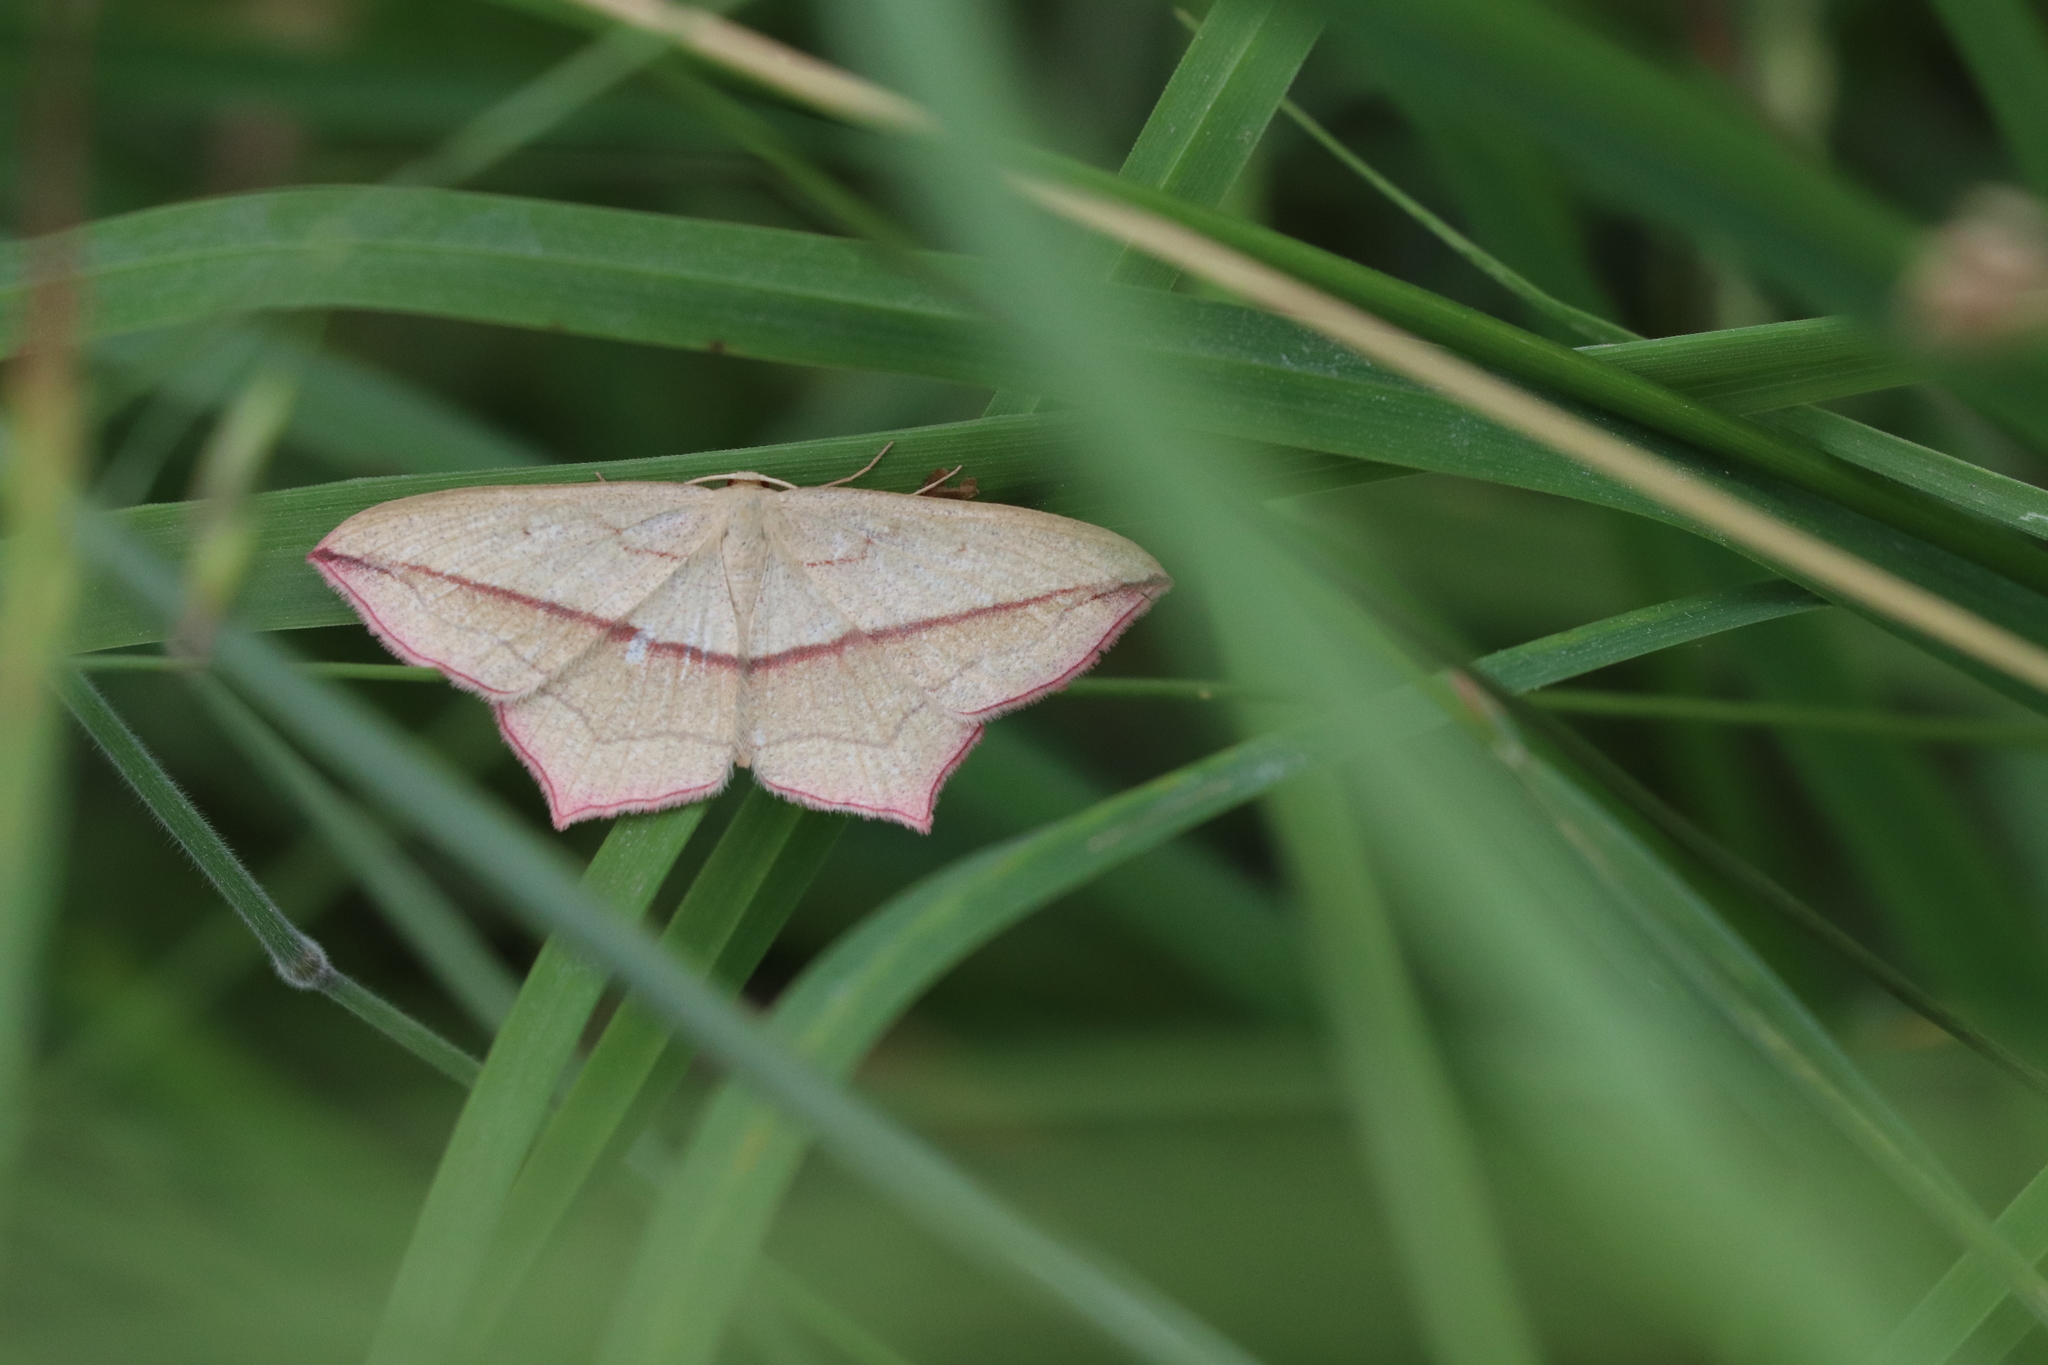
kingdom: Animalia
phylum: Arthropoda
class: Insecta
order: Lepidoptera
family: Geometridae
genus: Timandra
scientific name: Timandra comae
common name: Blood-vein
